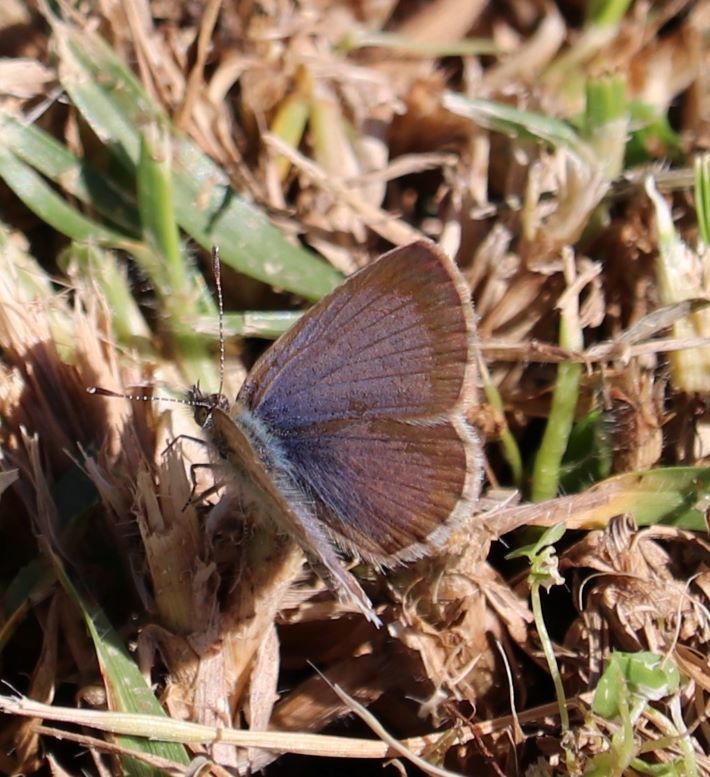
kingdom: Animalia
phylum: Arthropoda
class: Insecta
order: Lepidoptera
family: Lycaenidae
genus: Zizeeria
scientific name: Zizeeria knysna
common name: African grass blue
